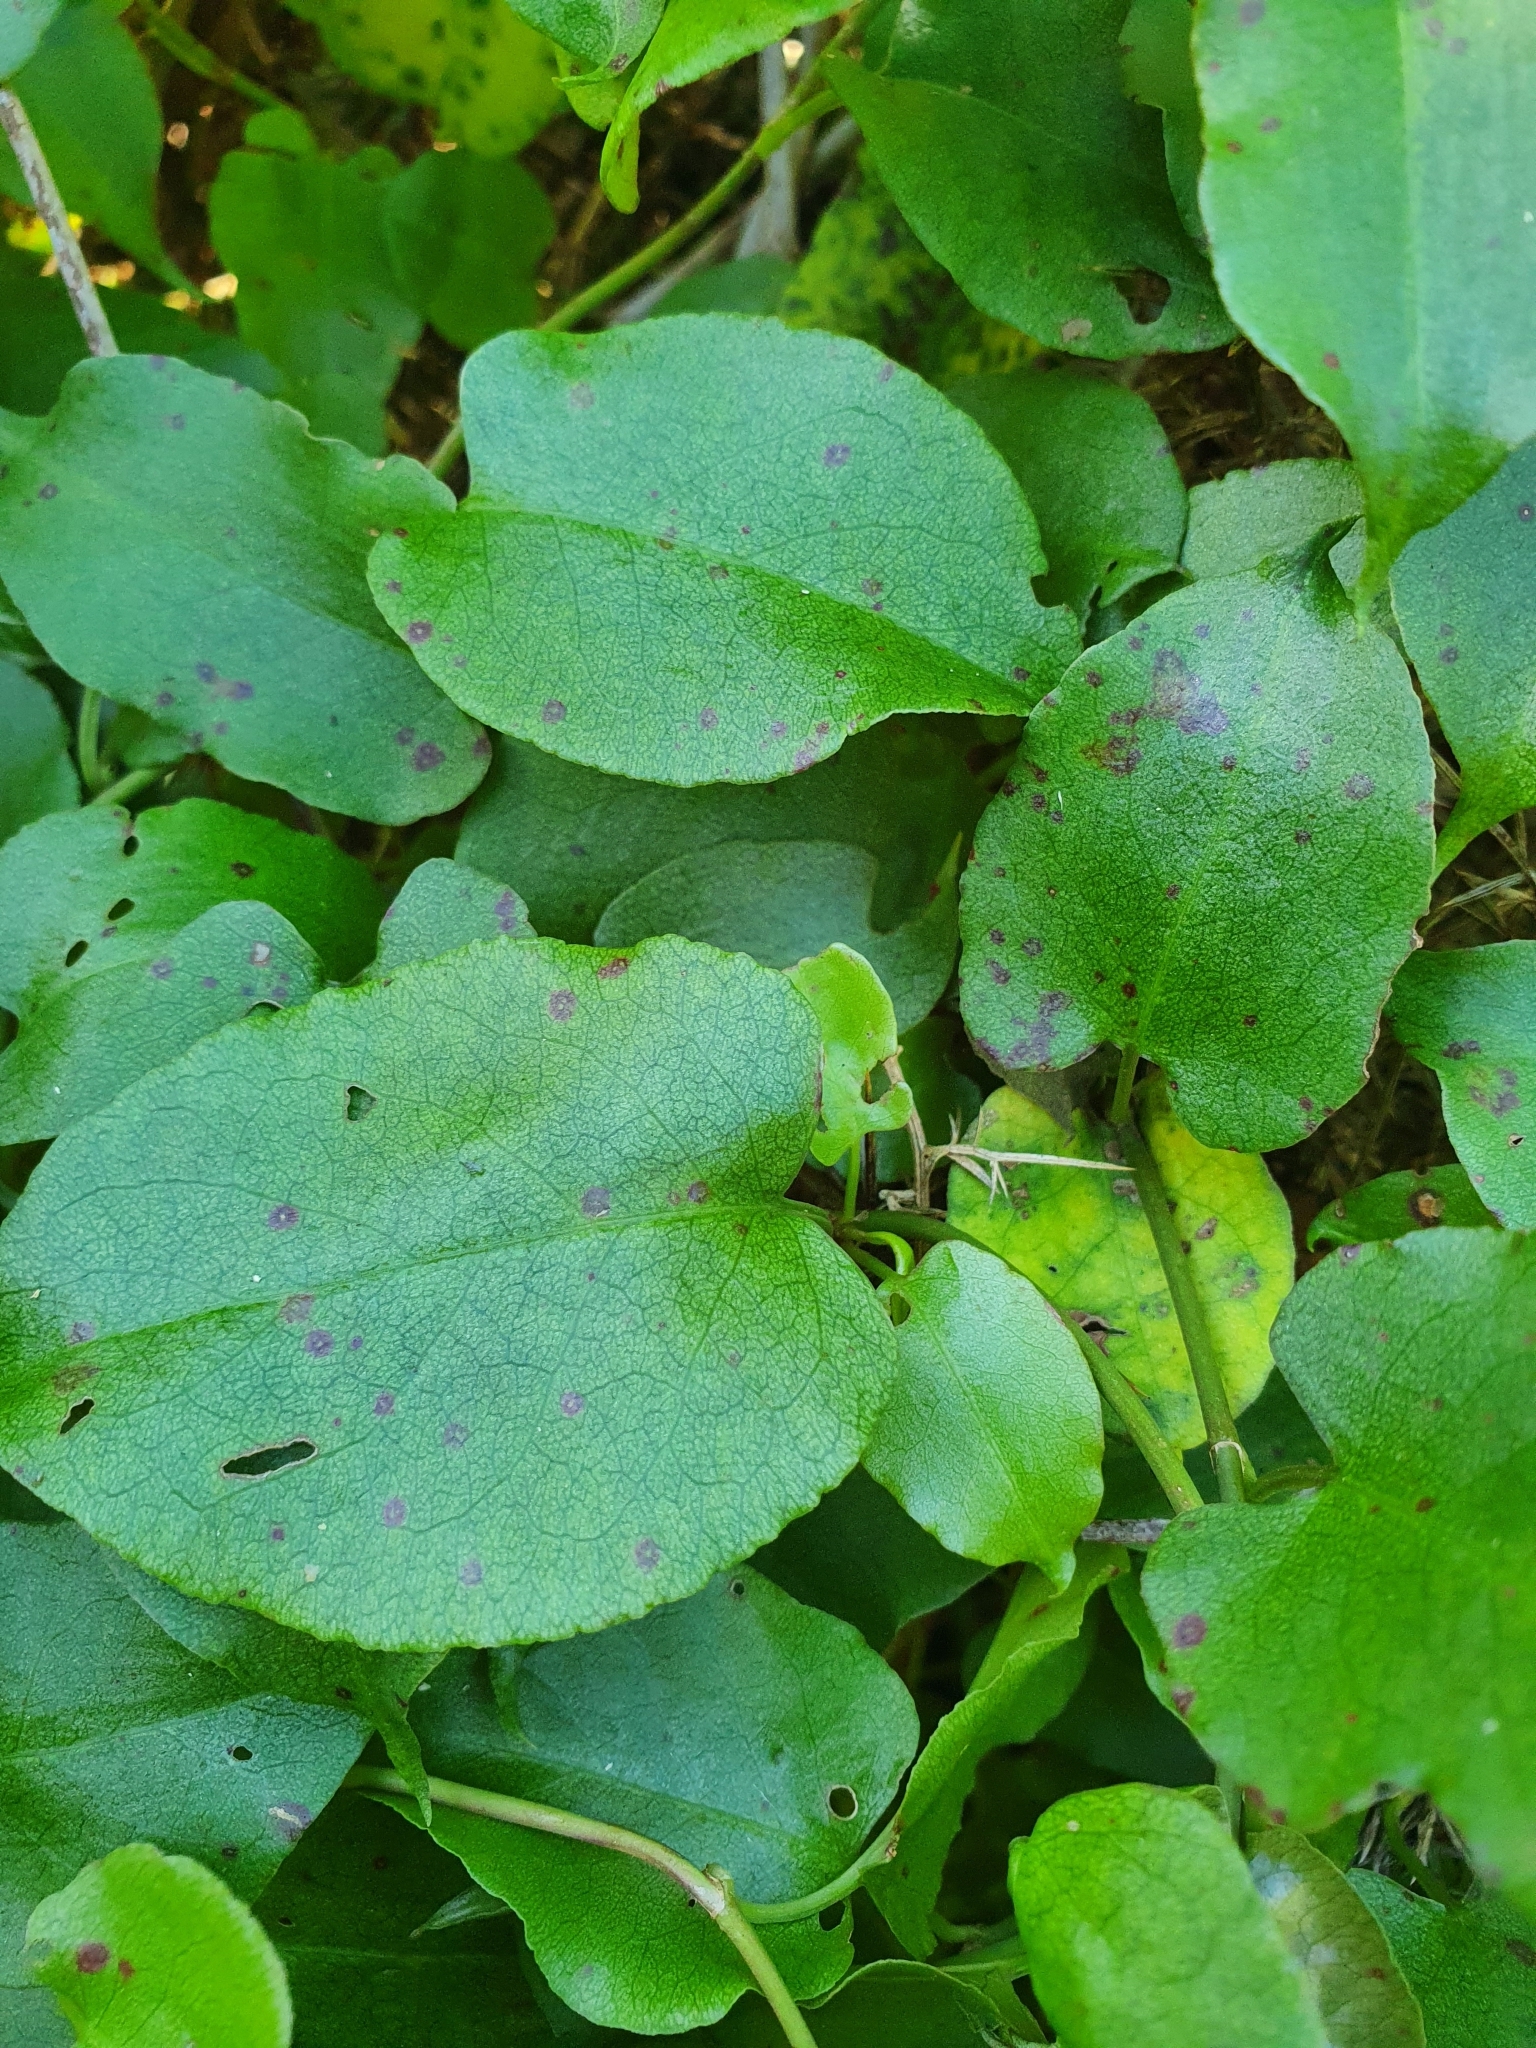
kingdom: Plantae
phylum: Tracheophyta
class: Magnoliopsida
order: Caryophyllales
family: Polygonaceae
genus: Muehlenbeckia
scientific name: Muehlenbeckia australis
